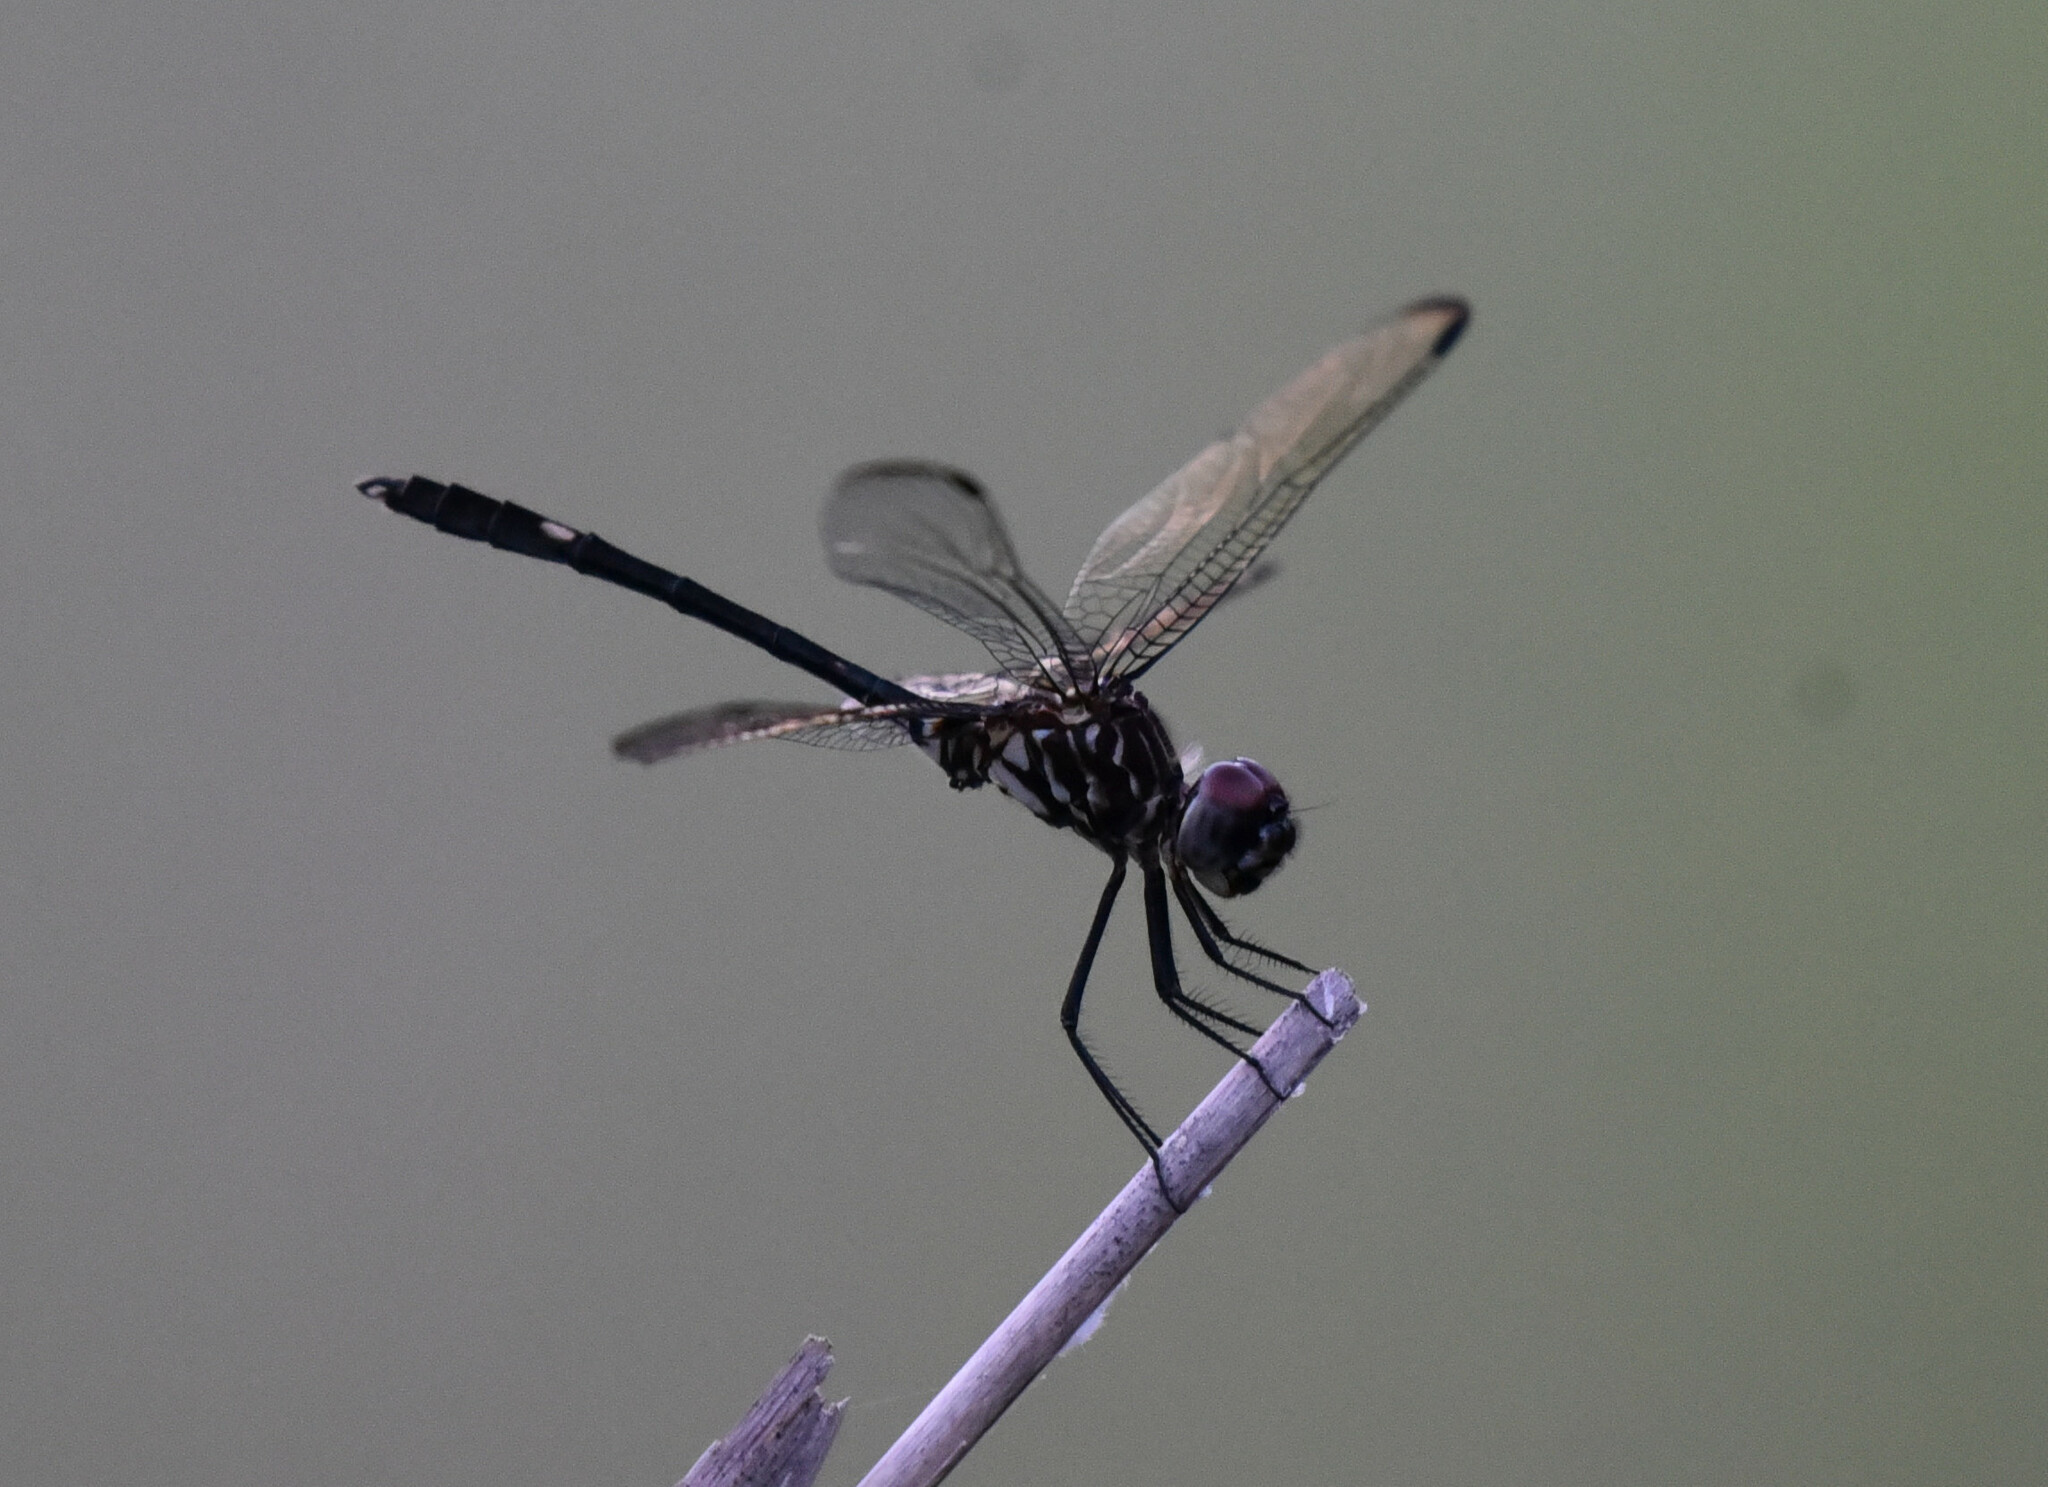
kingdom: Animalia
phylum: Arthropoda
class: Insecta
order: Odonata
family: Libellulidae
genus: Dythemis
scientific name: Dythemis velox
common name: Swift setwing
